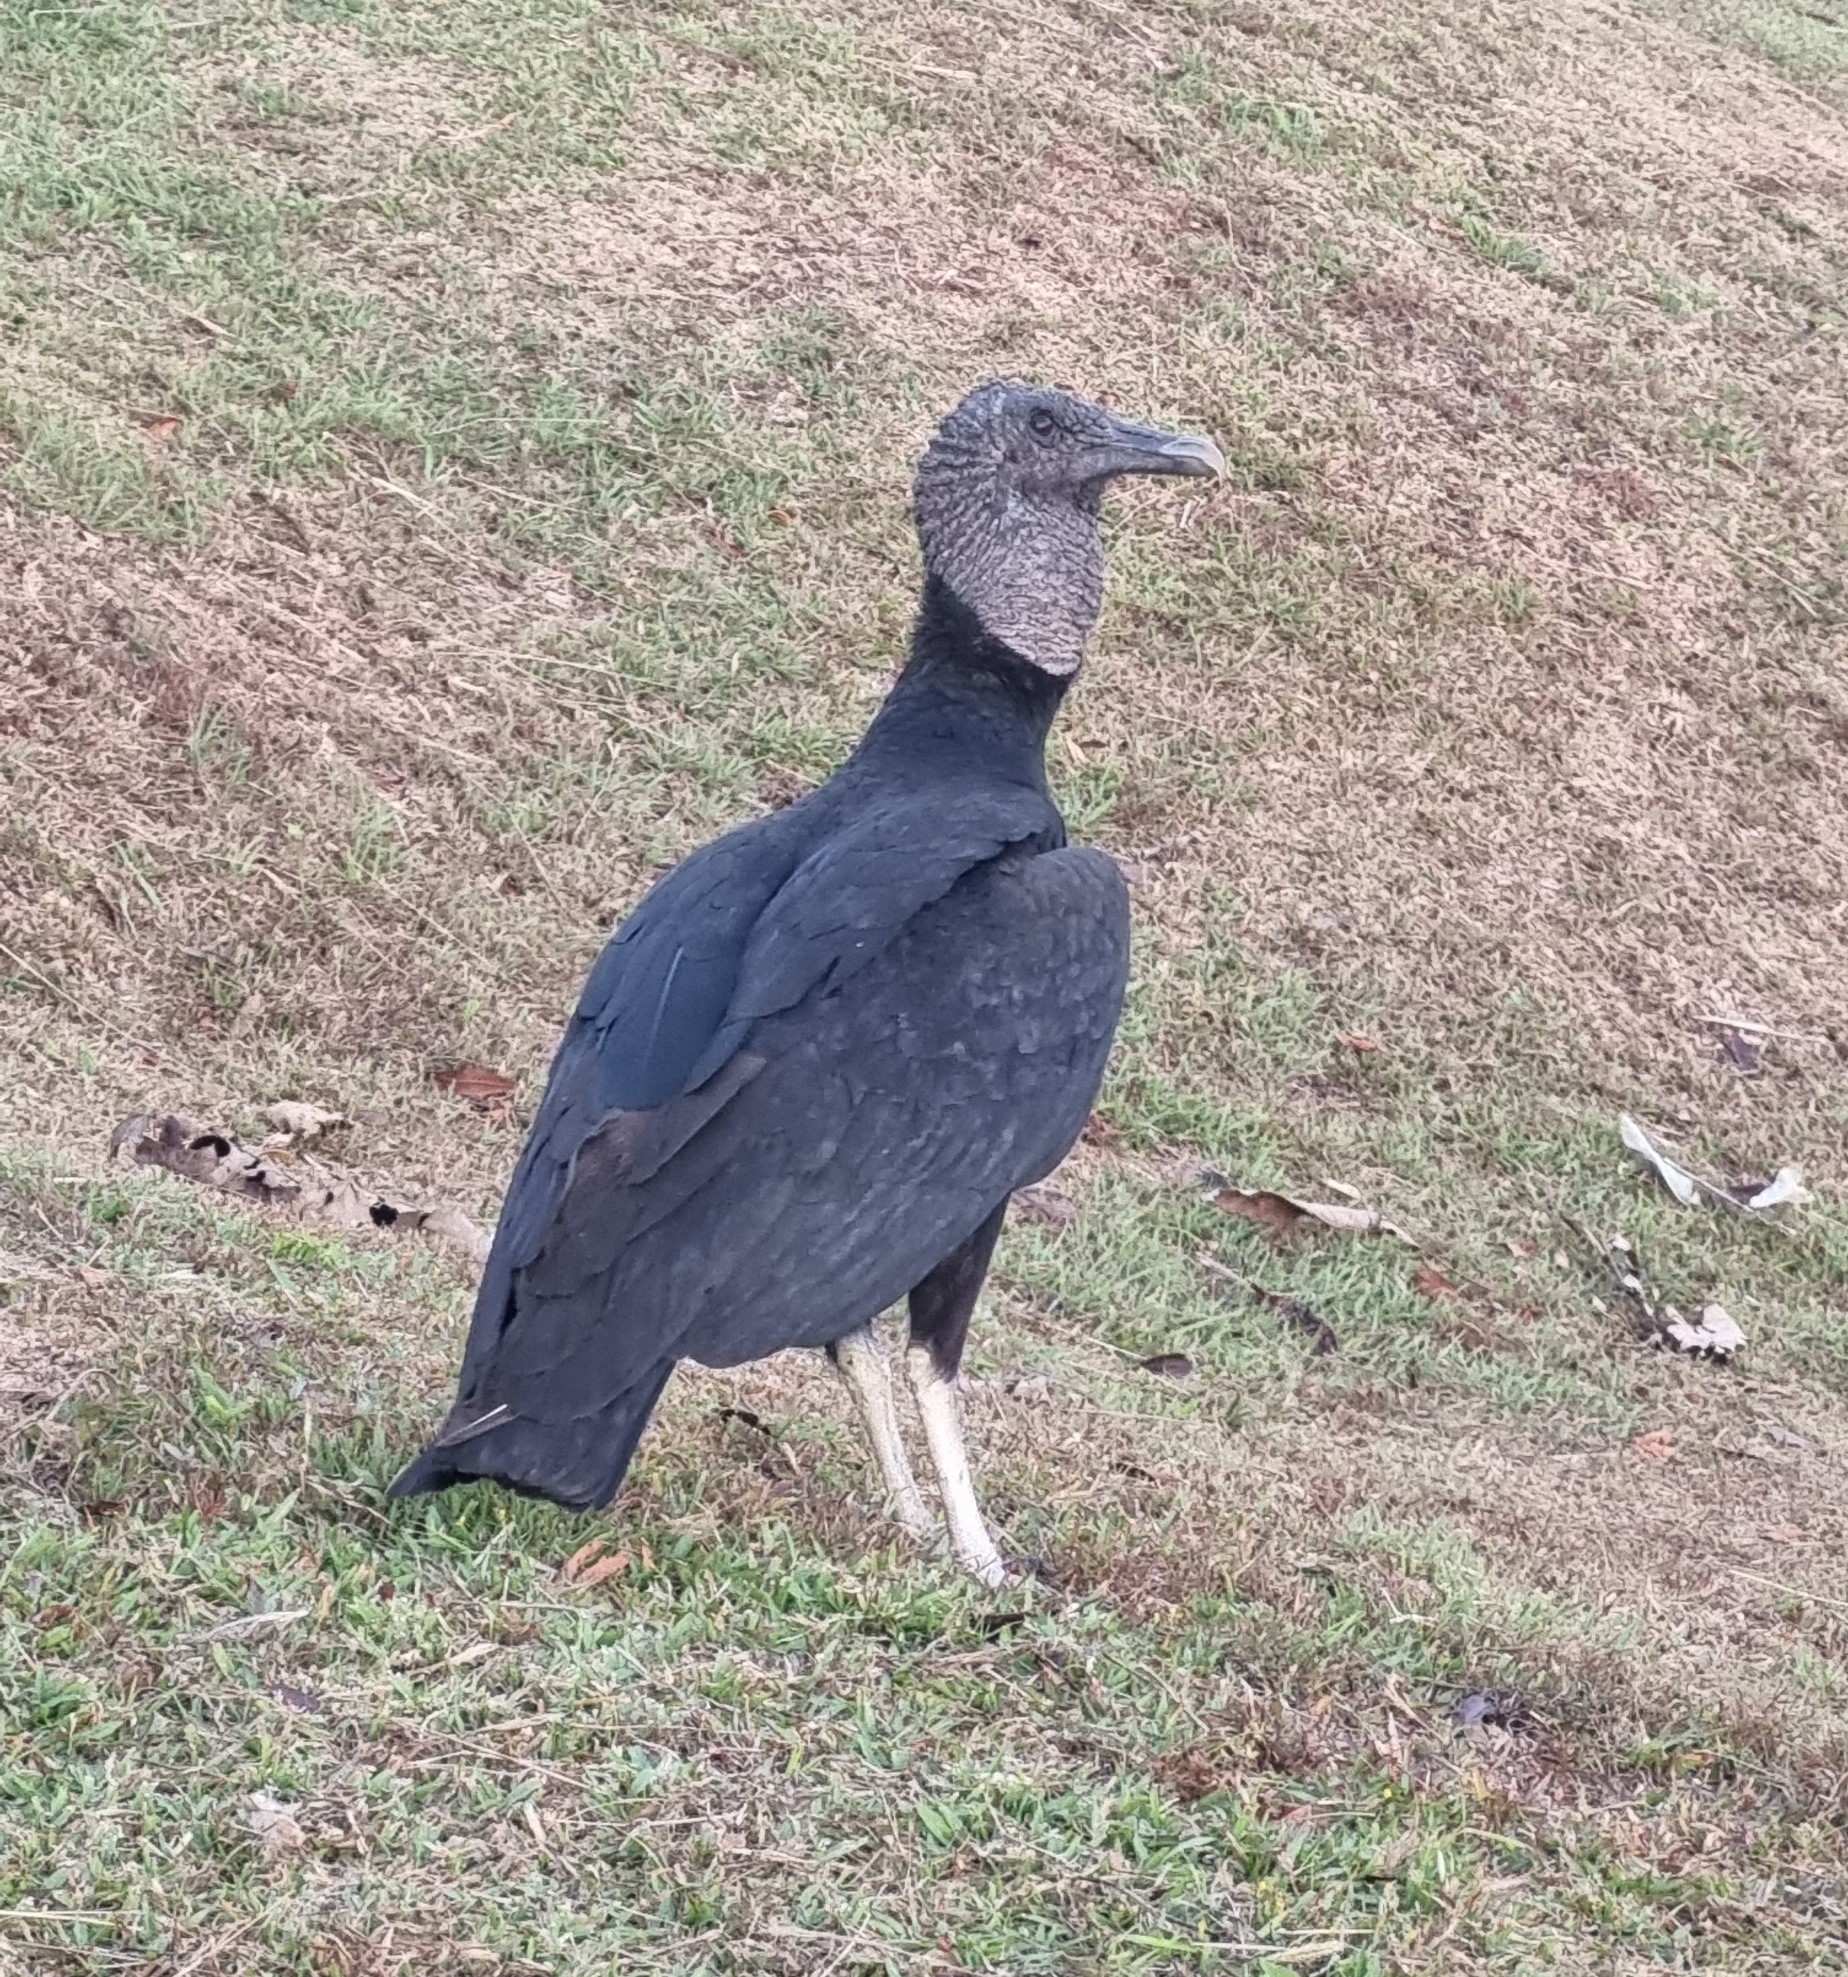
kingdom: Animalia
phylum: Chordata
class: Aves
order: Accipitriformes
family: Cathartidae
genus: Coragyps
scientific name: Coragyps atratus
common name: Black vulture
